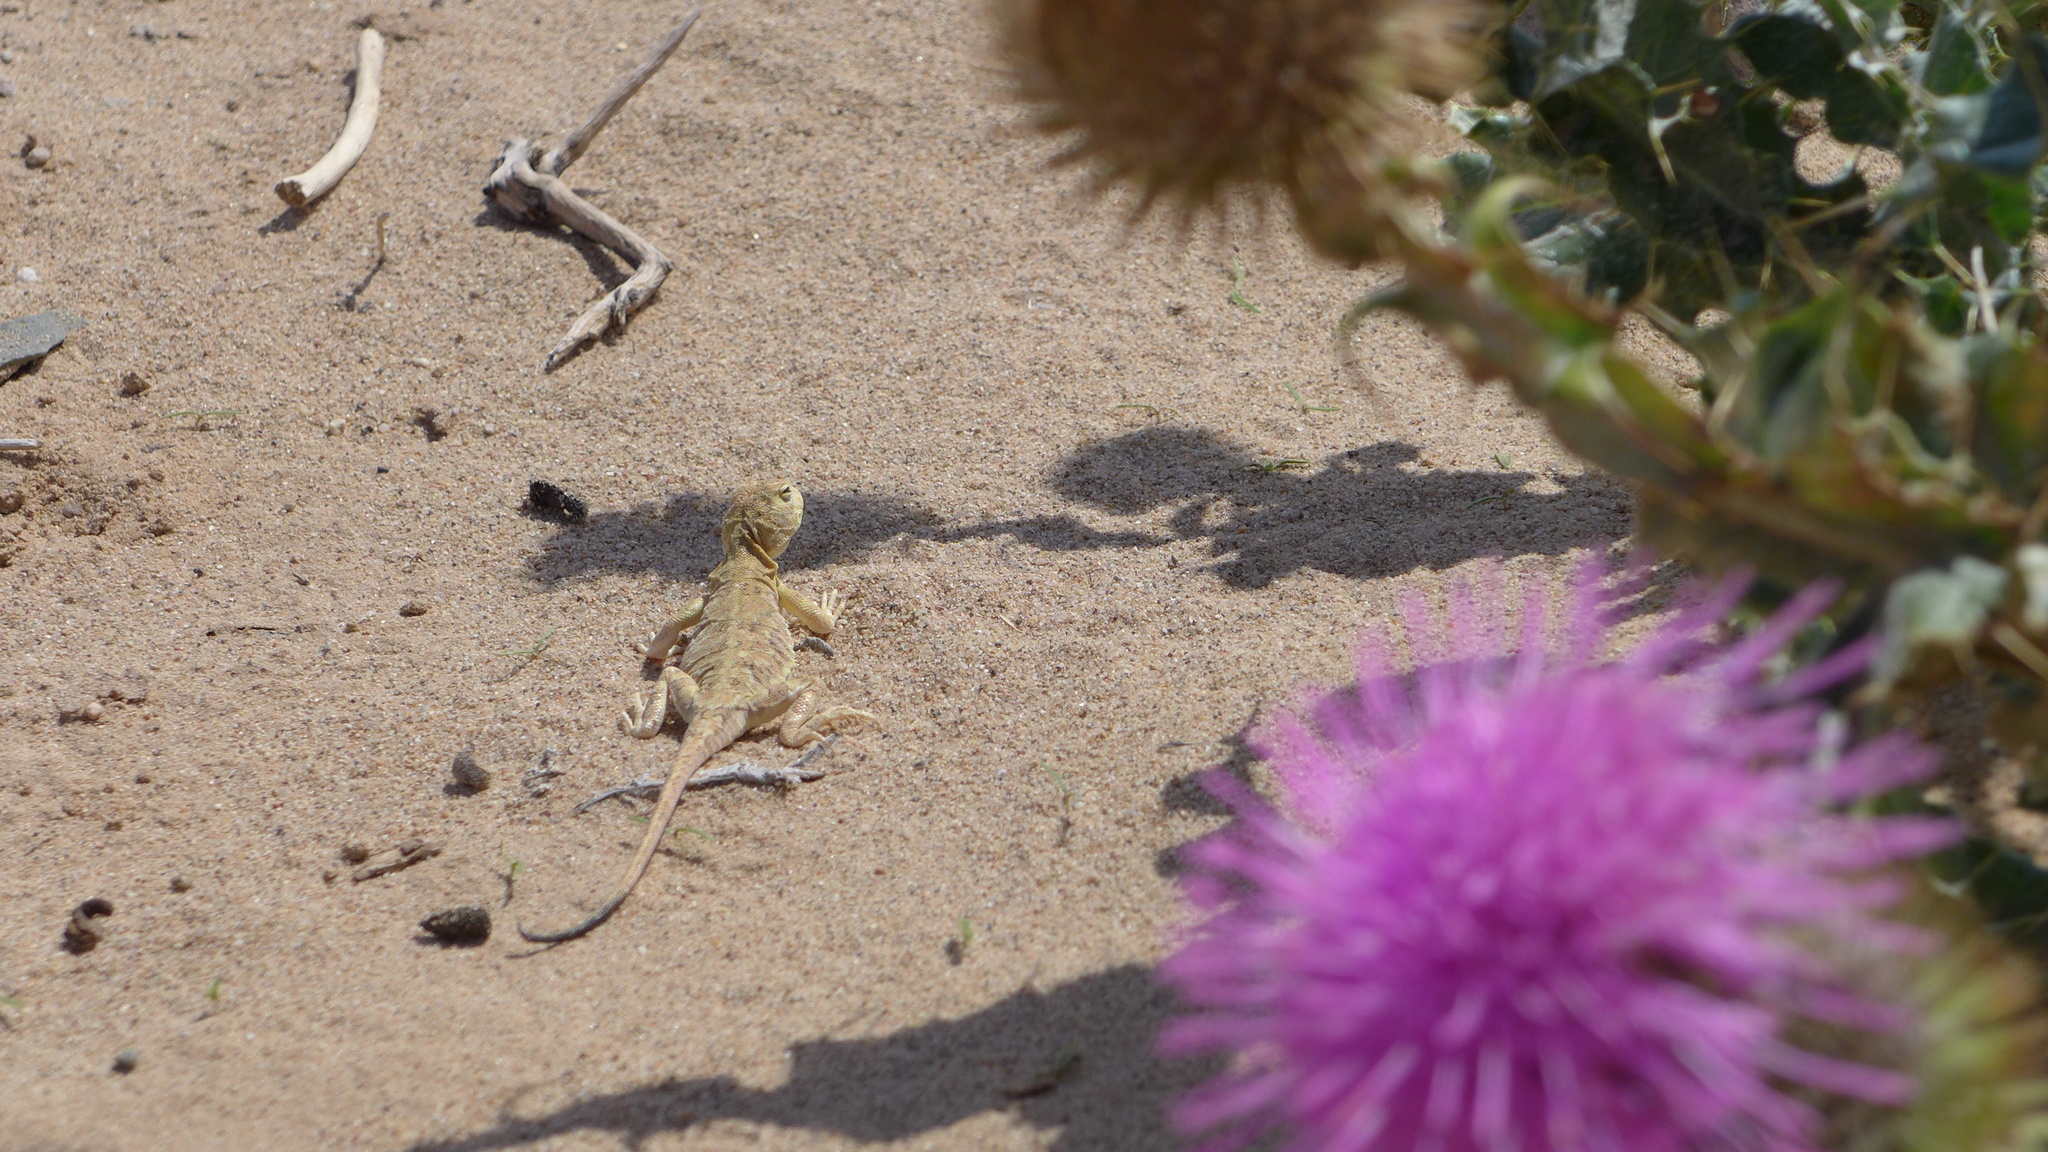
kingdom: Animalia
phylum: Chordata
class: Squamata
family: Agamidae
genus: Phrynocephalus
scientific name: Phrynocephalus versicolor
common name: Tuvan toad-headed agama
